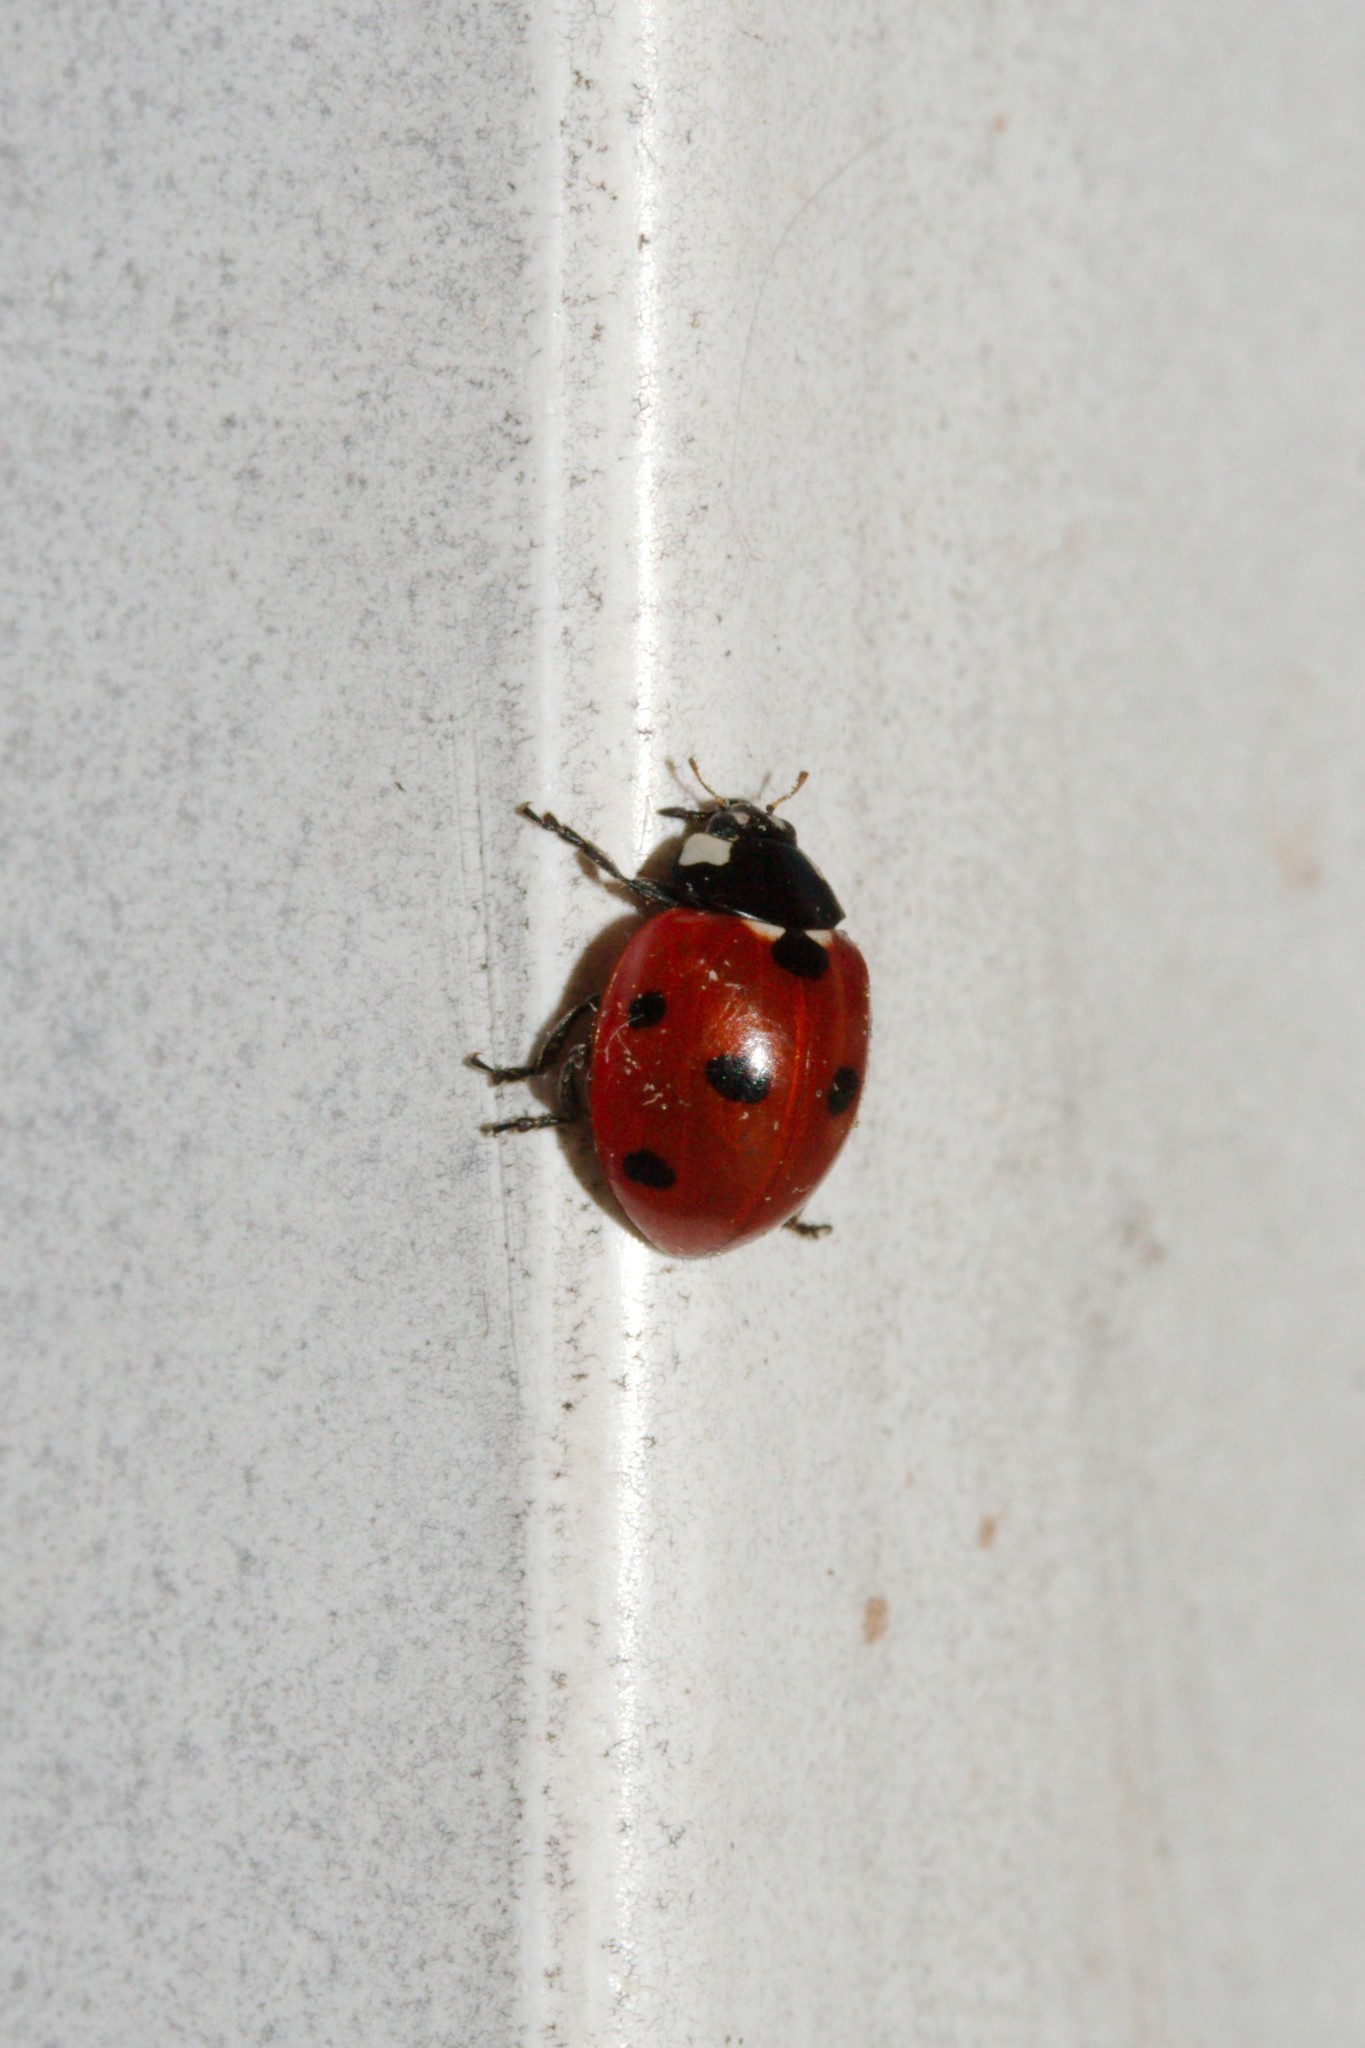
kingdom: Animalia
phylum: Arthropoda
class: Insecta
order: Coleoptera
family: Coccinellidae
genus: Coccinella
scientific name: Coccinella septempunctata
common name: Sevenspotted lady beetle
